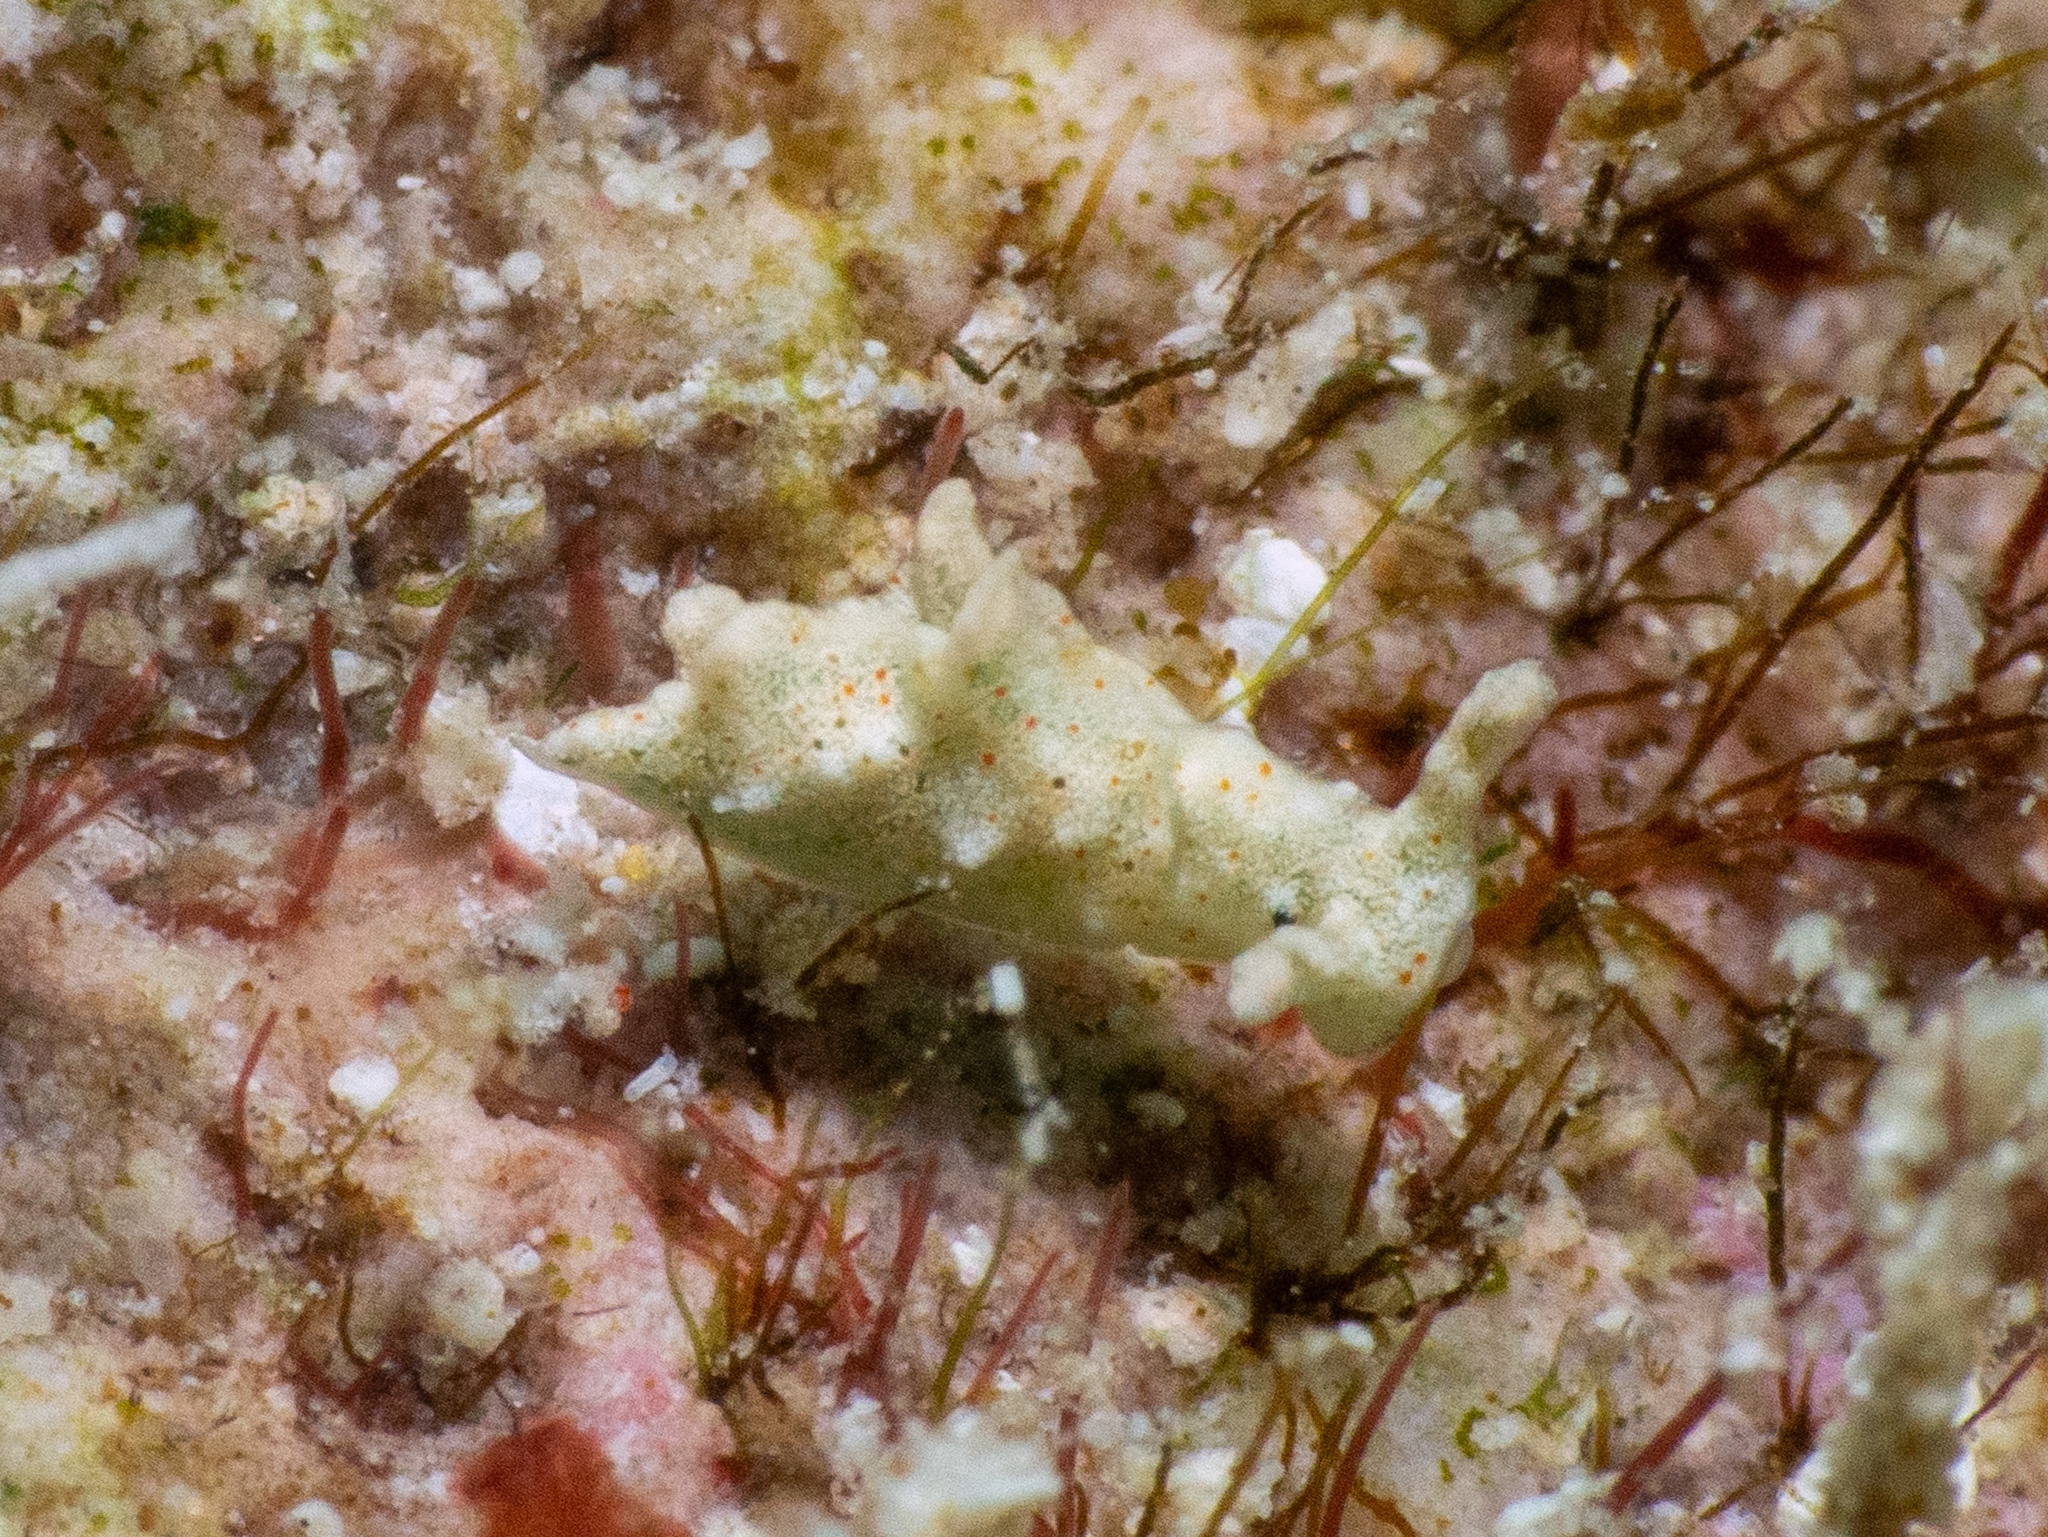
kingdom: Animalia
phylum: Mollusca
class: Gastropoda
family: Plakobranchidae
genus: Elysia
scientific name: Elysia cornigera
